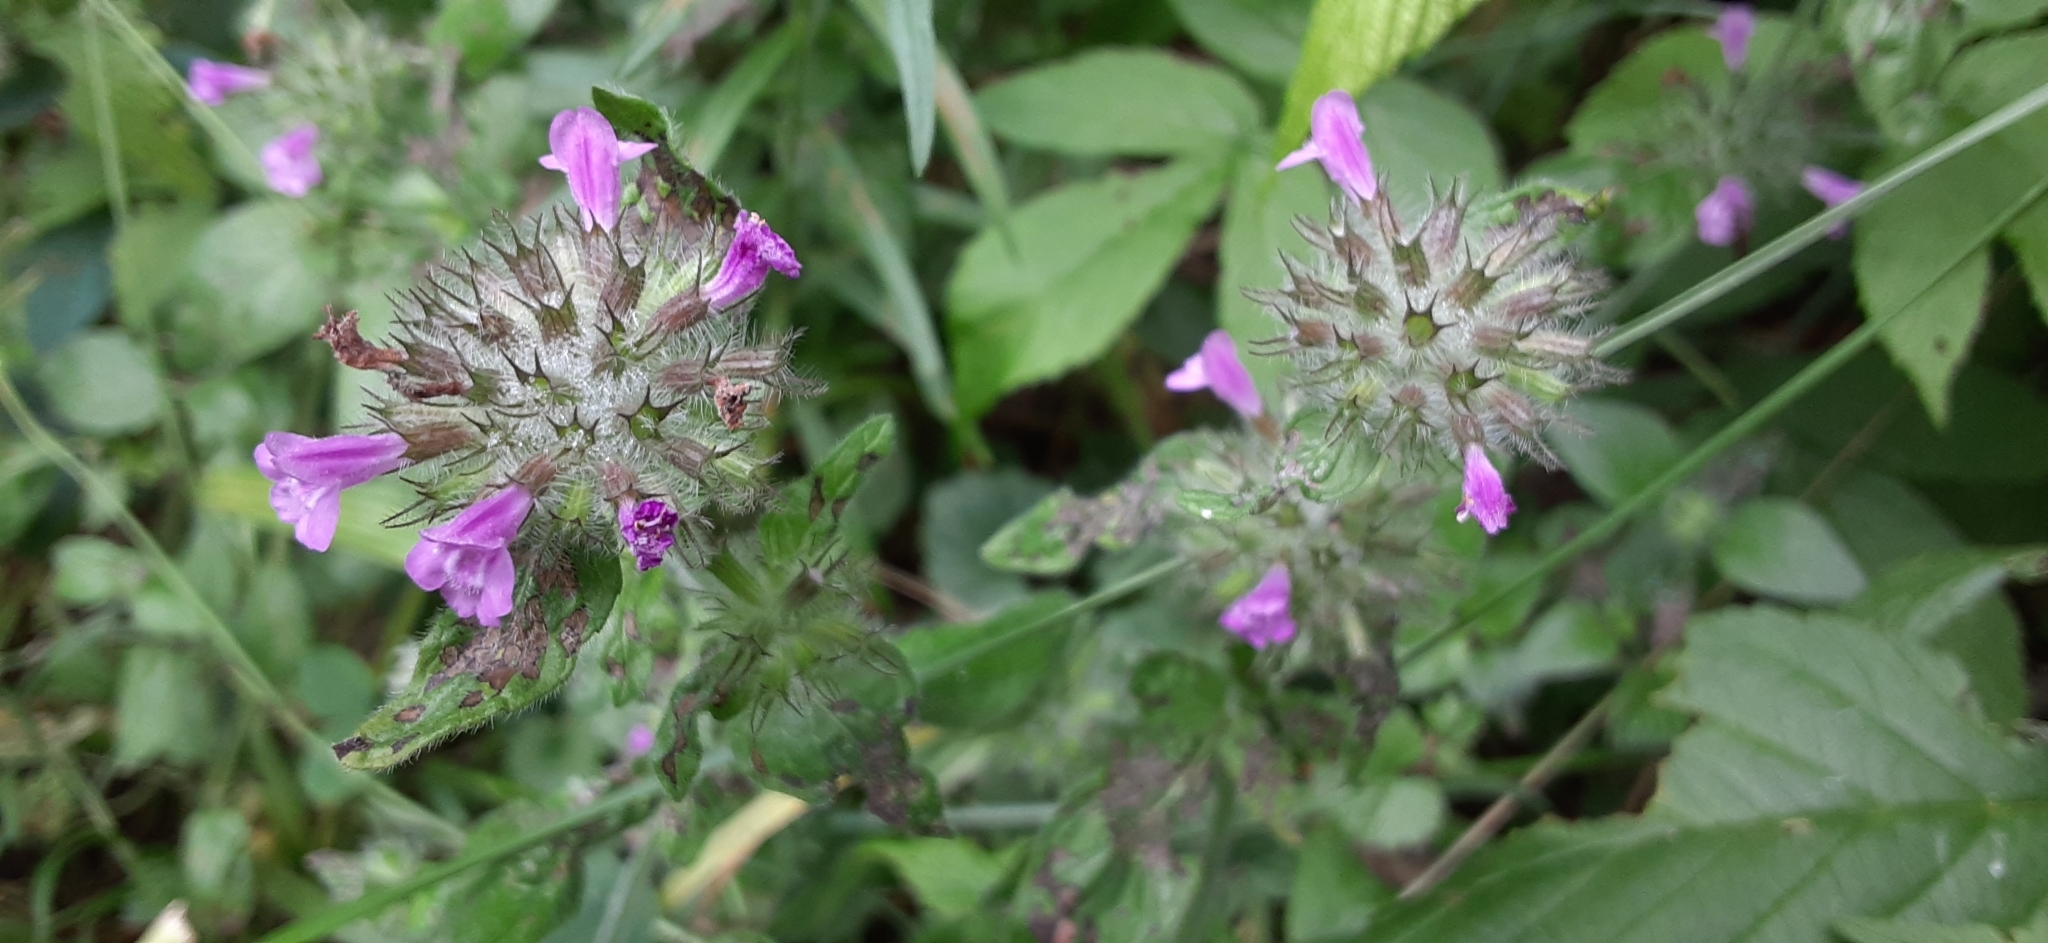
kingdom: Plantae
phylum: Tracheophyta
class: Magnoliopsida
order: Lamiales
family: Lamiaceae
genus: Clinopodium
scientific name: Clinopodium vulgare
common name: Wild basil
